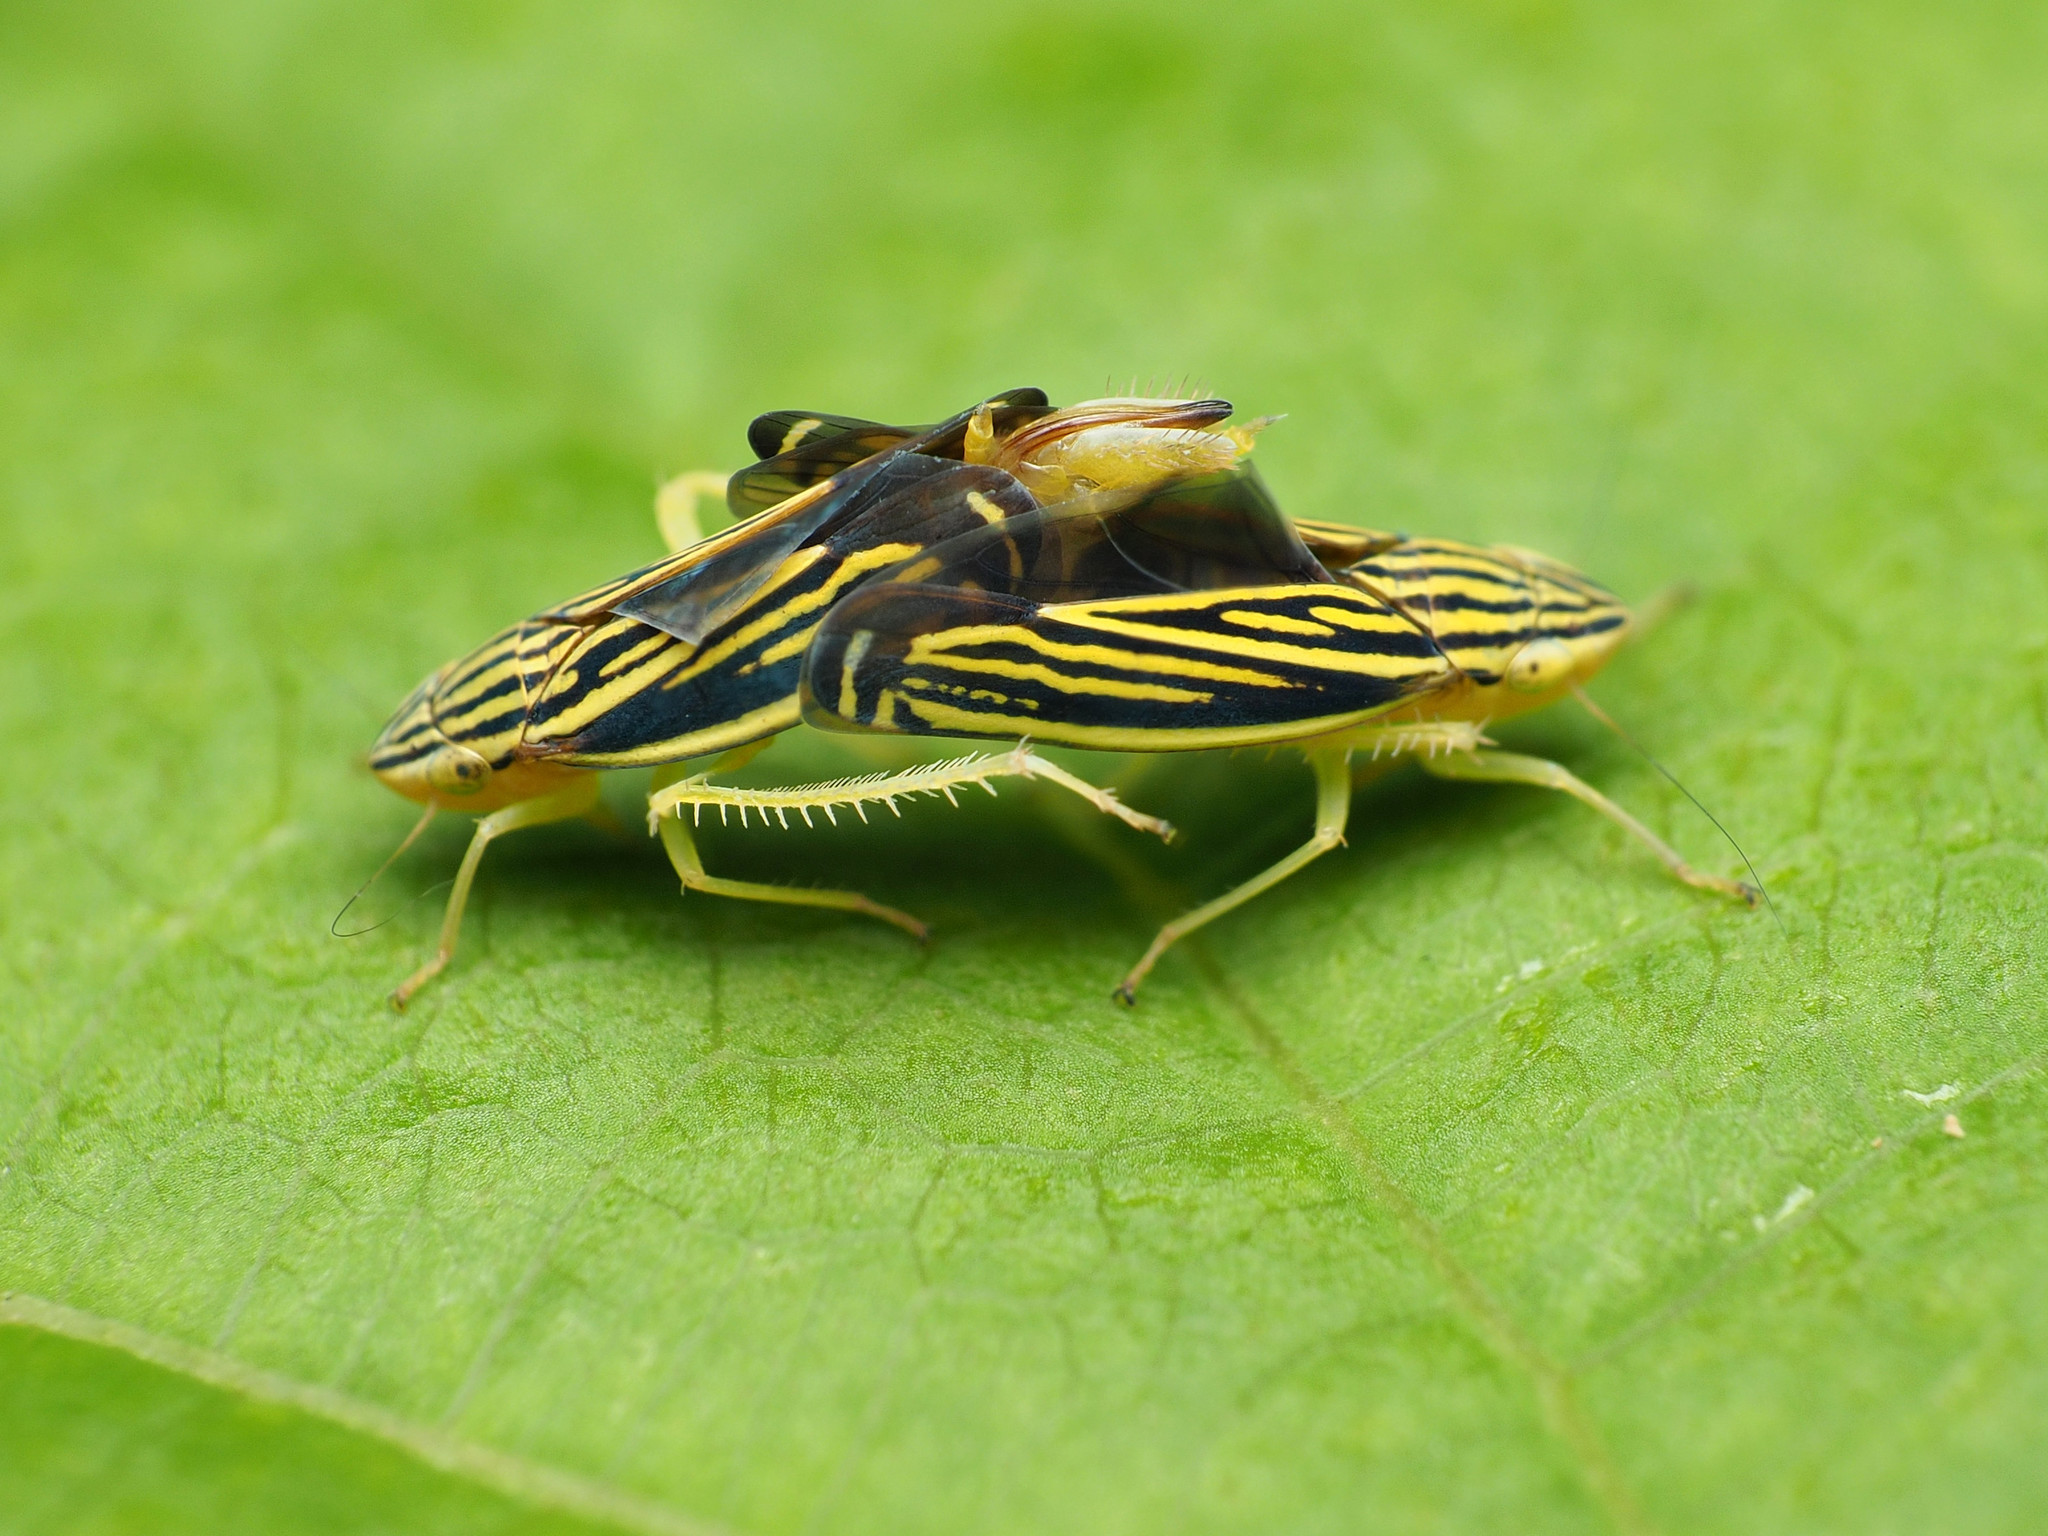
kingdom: Animalia
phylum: Arthropoda
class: Insecta
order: Hemiptera
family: Cicadellidae
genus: Sibovia
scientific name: Sibovia occatoria
